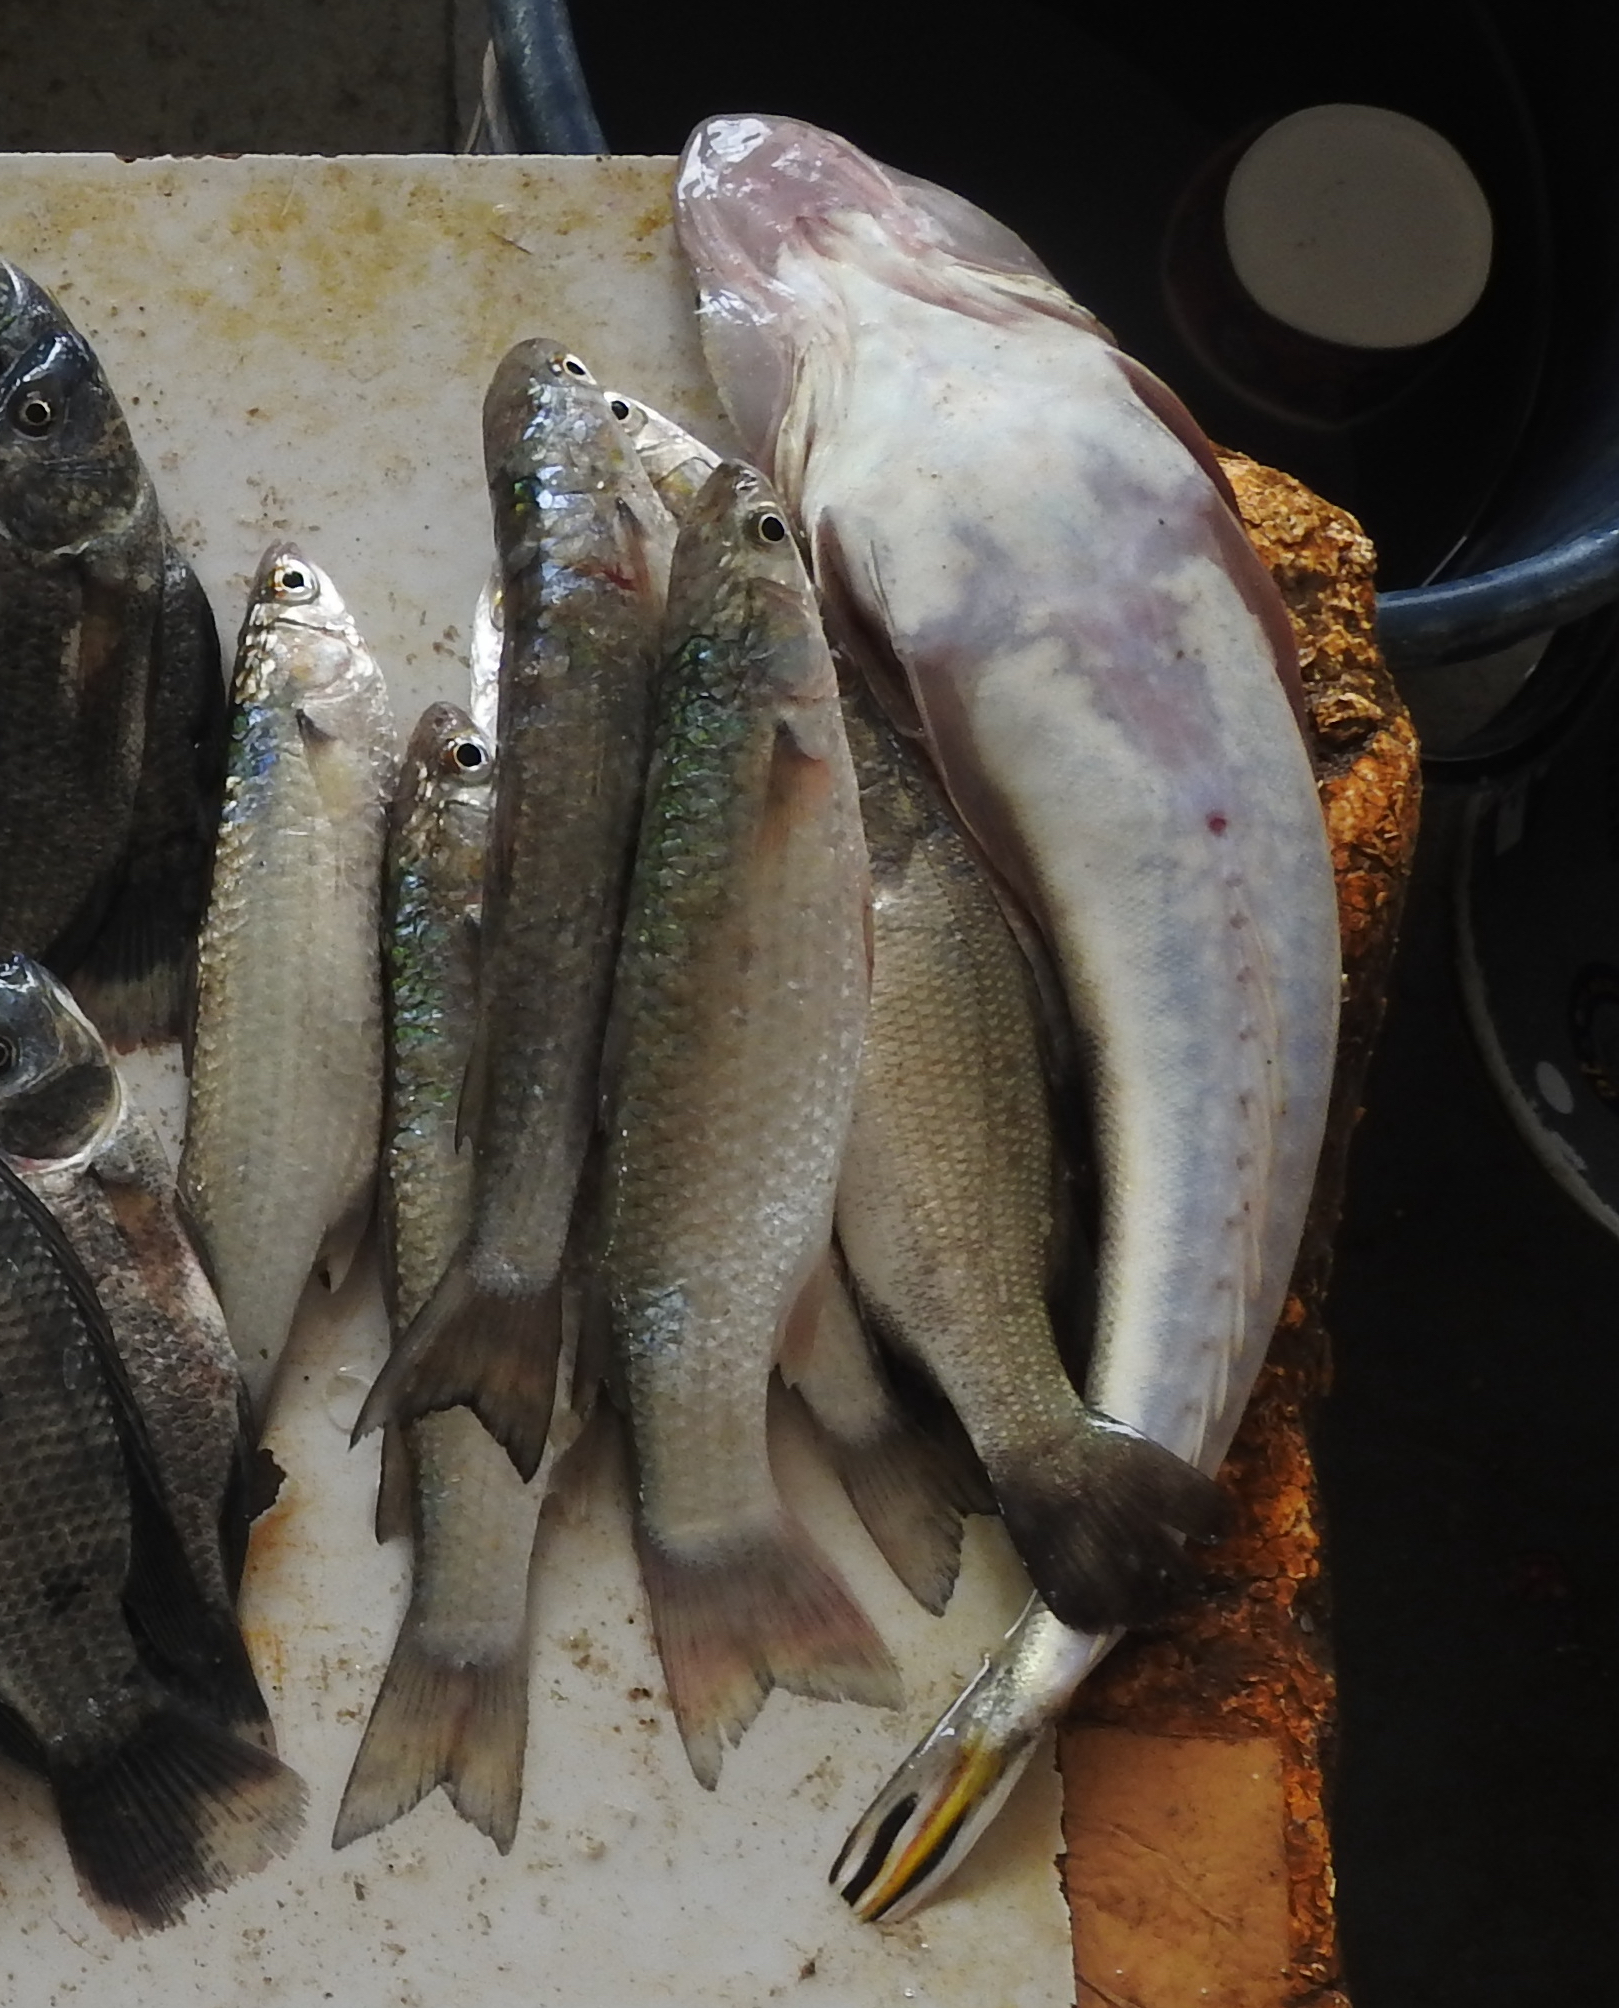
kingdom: Animalia
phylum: Chordata
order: Scorpaeniformes
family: Platycephalidae
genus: Platycephalus
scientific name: Platycephalus indicus
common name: Bartail flathead
